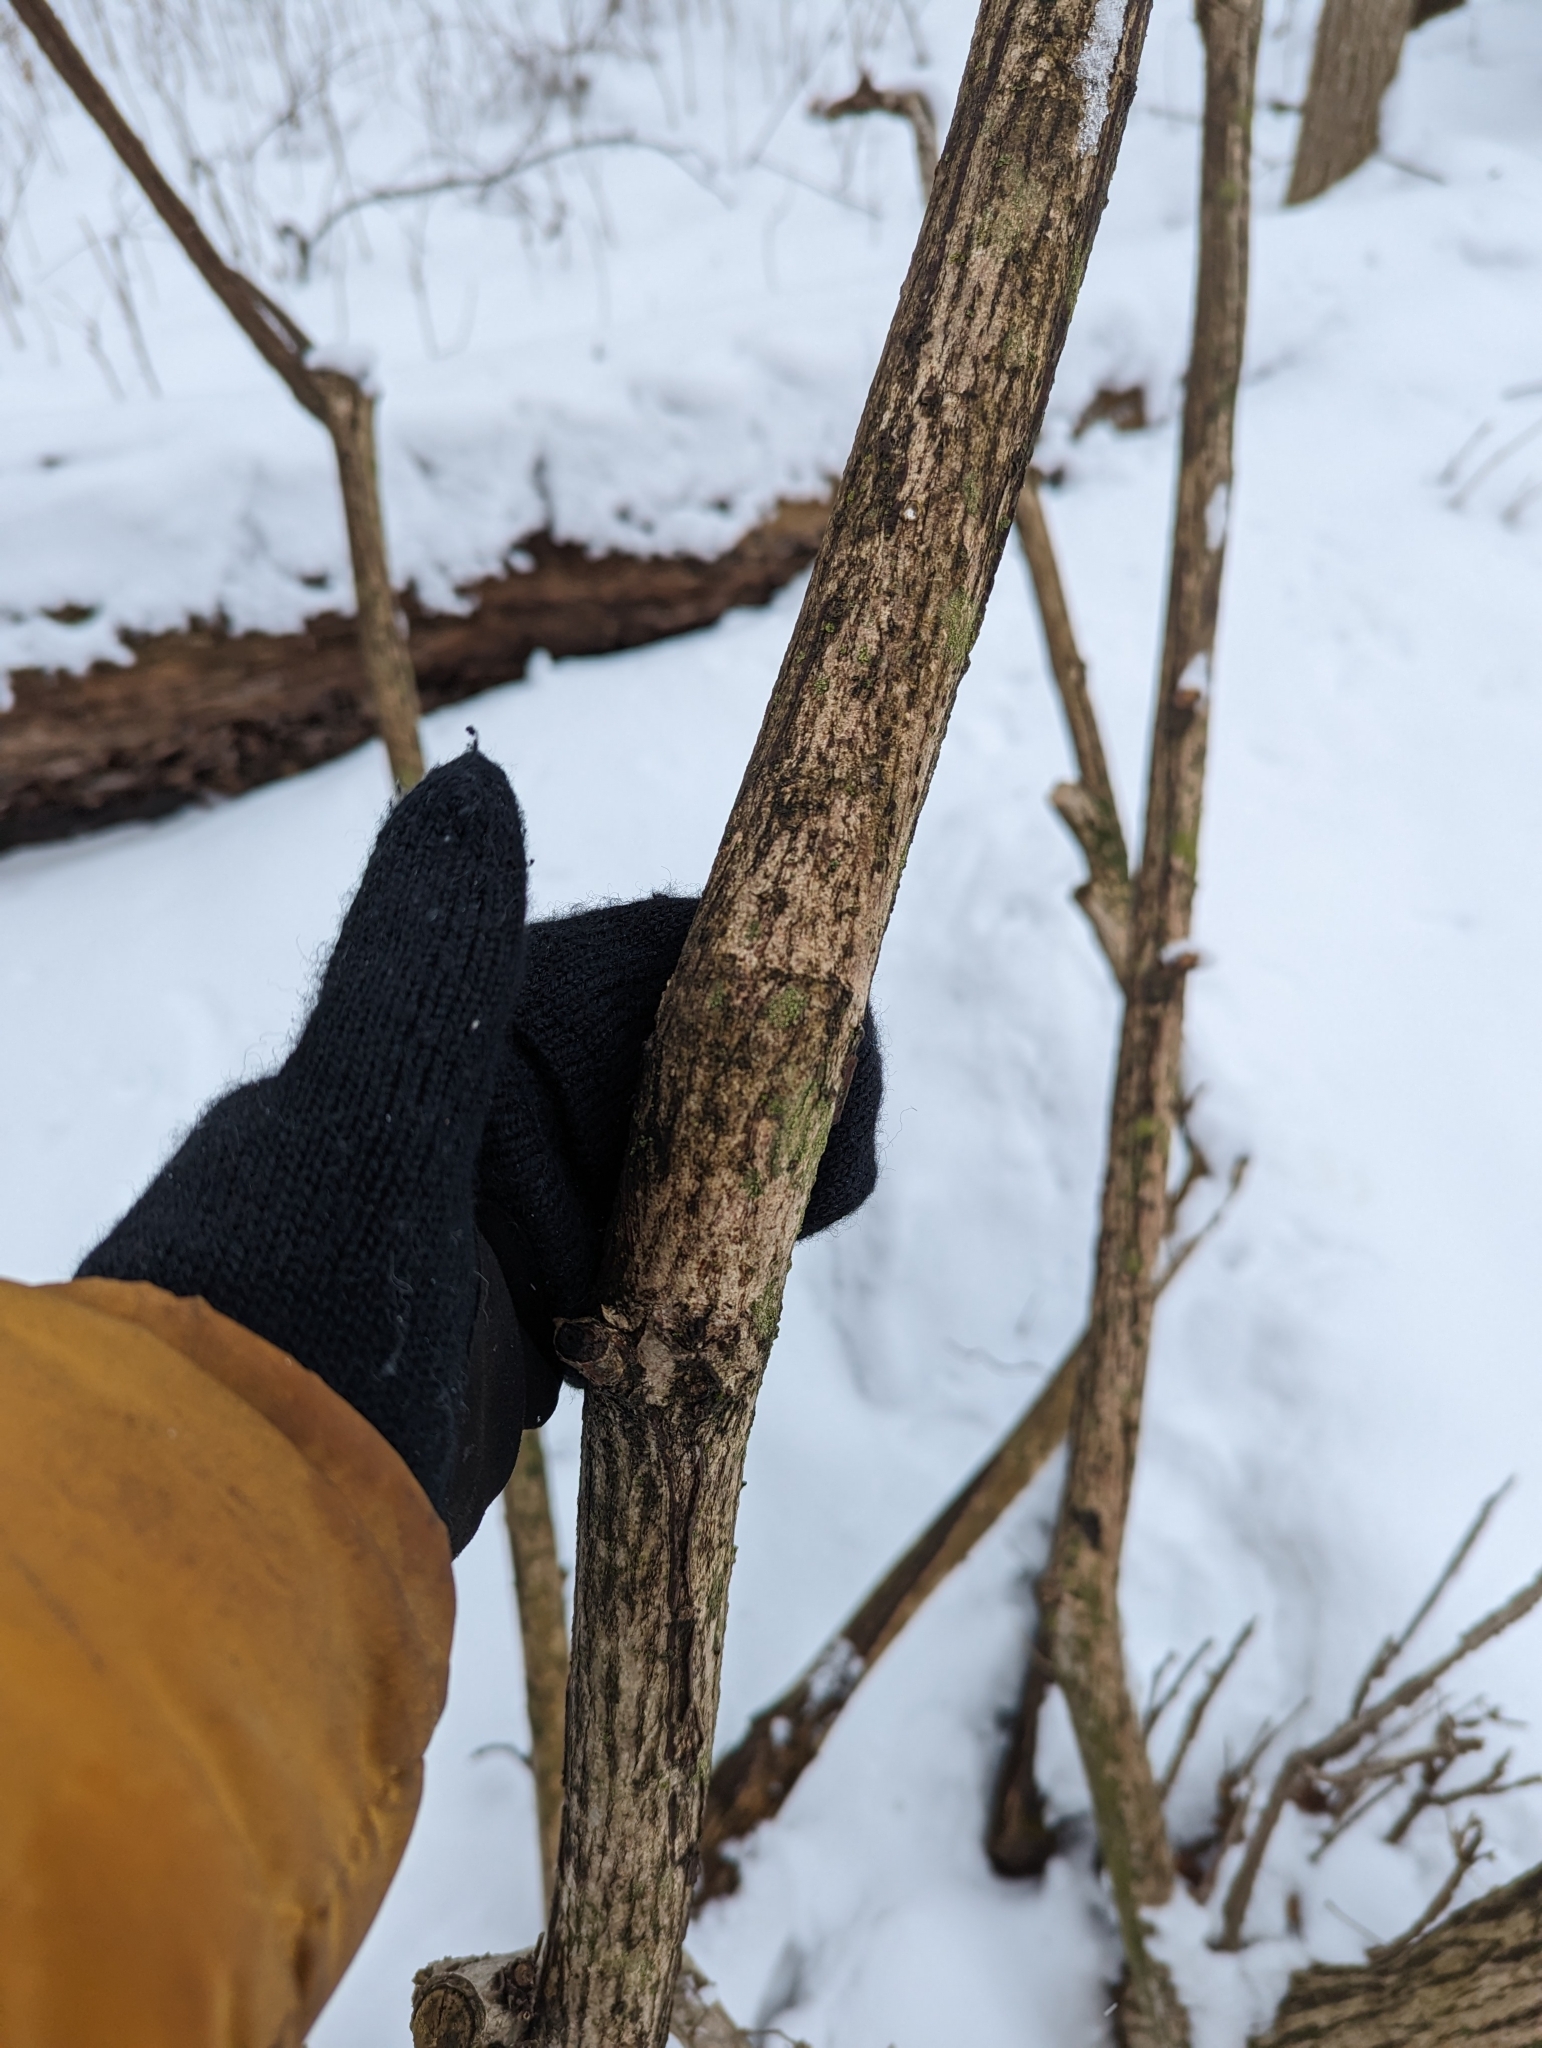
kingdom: Plantae
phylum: Tracheophyta
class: Magnoliopsida
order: Celastrales
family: Celastraceae
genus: Euonymus
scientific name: Euonymus alatus
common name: Winged euonymus
